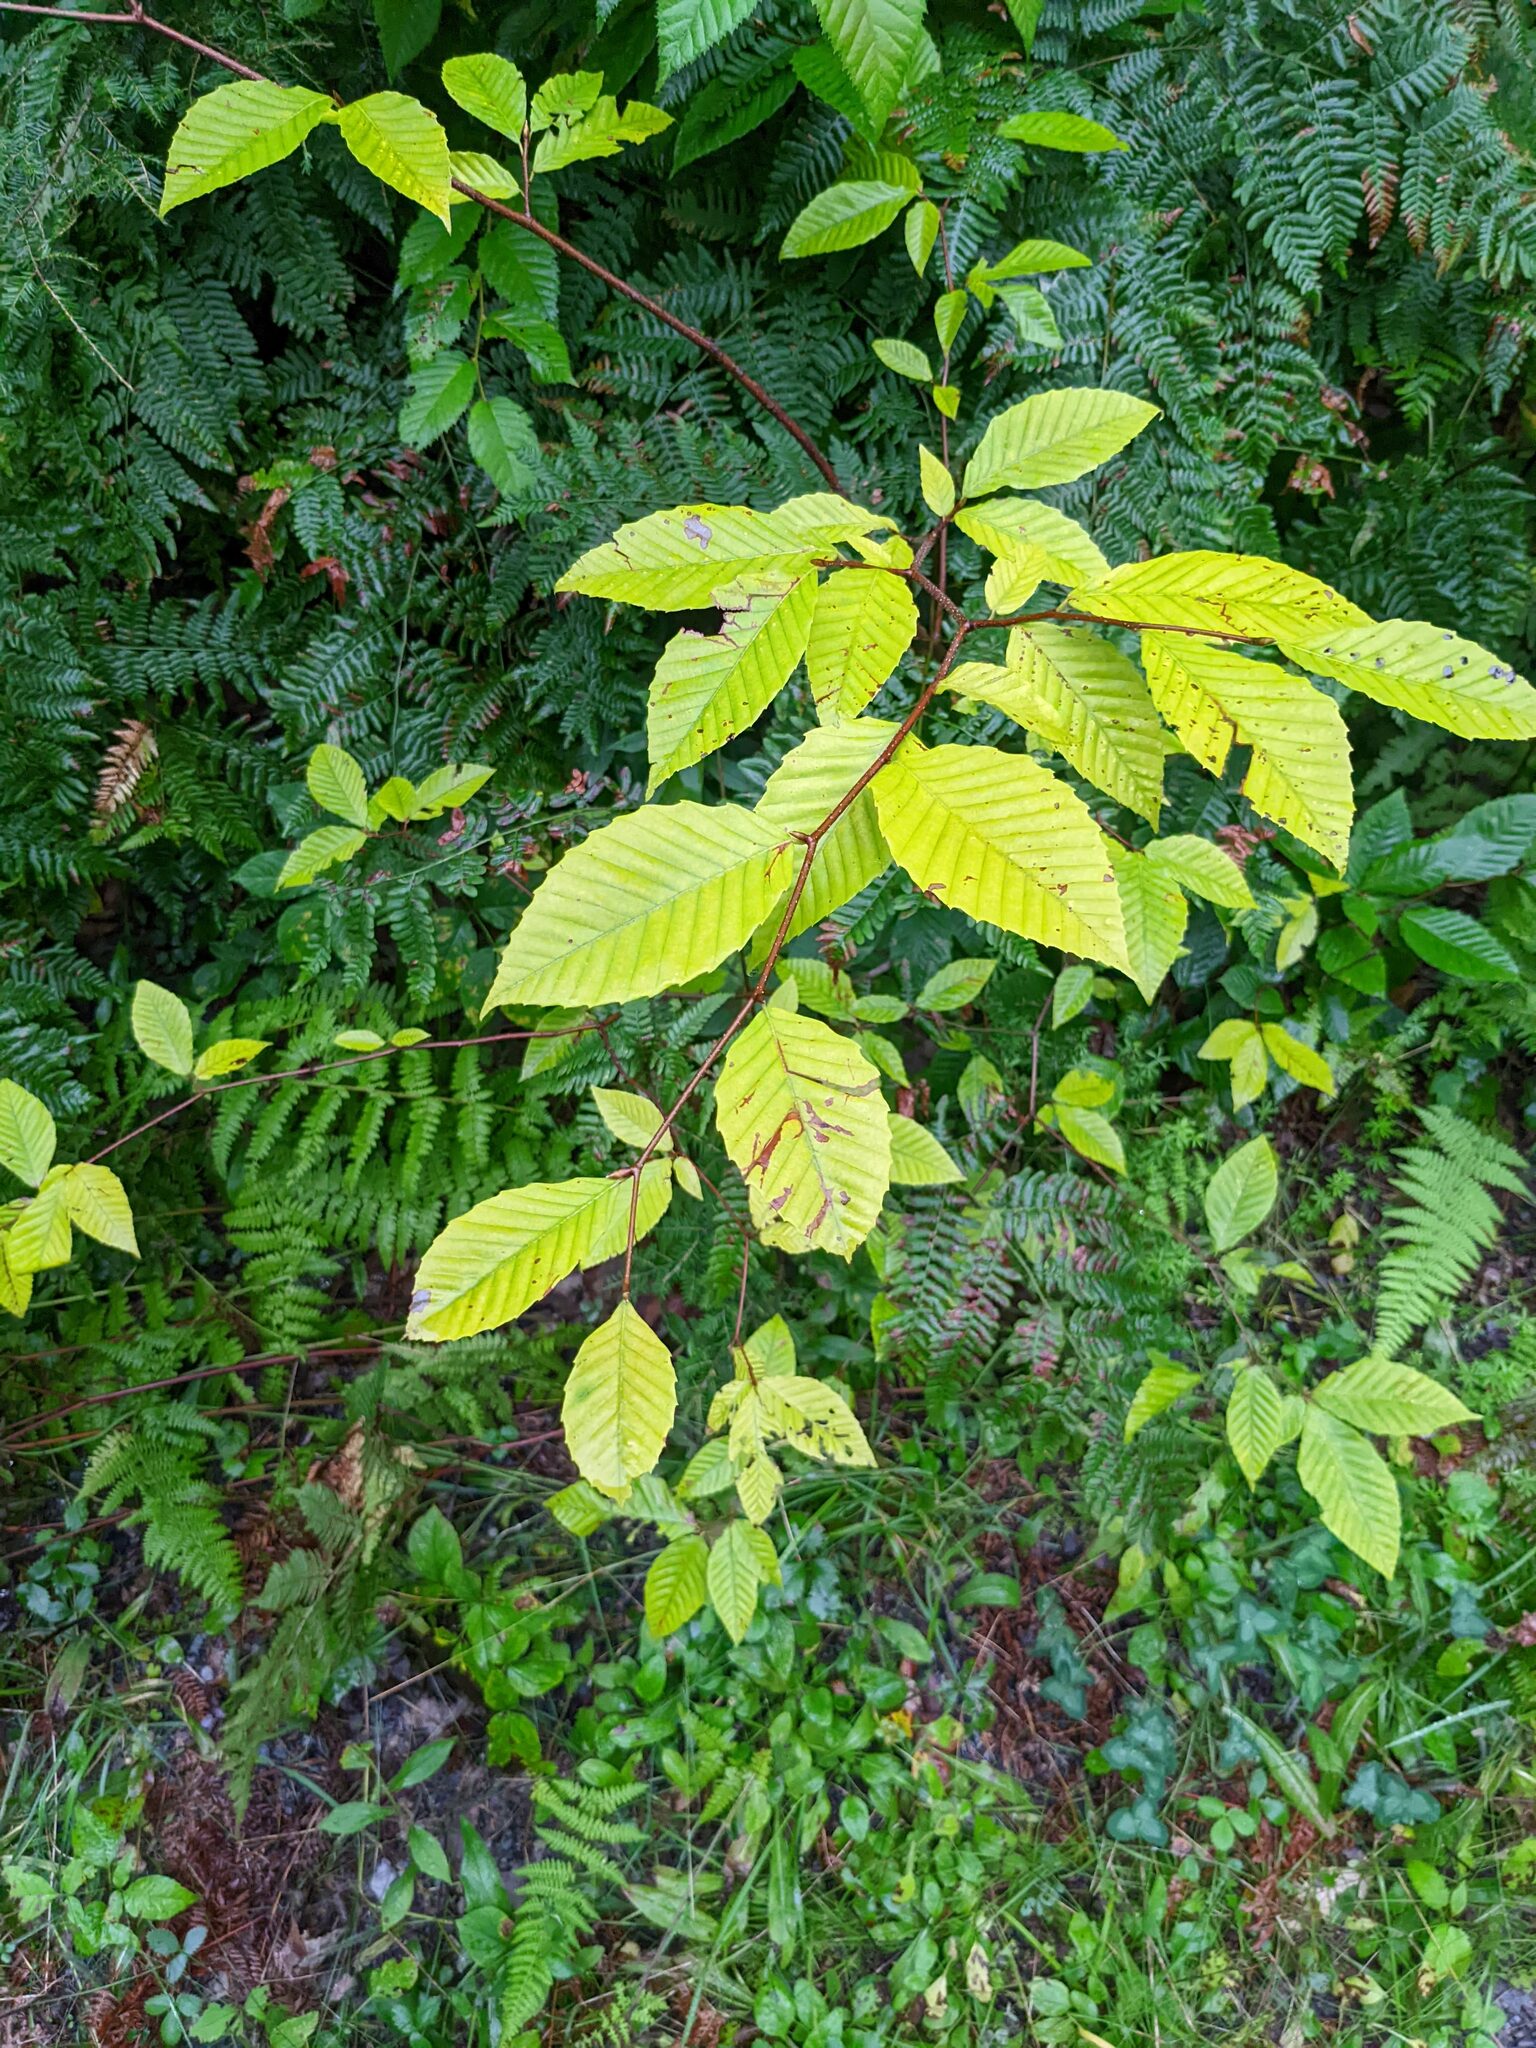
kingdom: Plantae
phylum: Tracheophyta
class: Magnoliopsida
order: Fagales
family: Fagaceae
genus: Fagus
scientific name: Fagus grandifolia
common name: American beech
